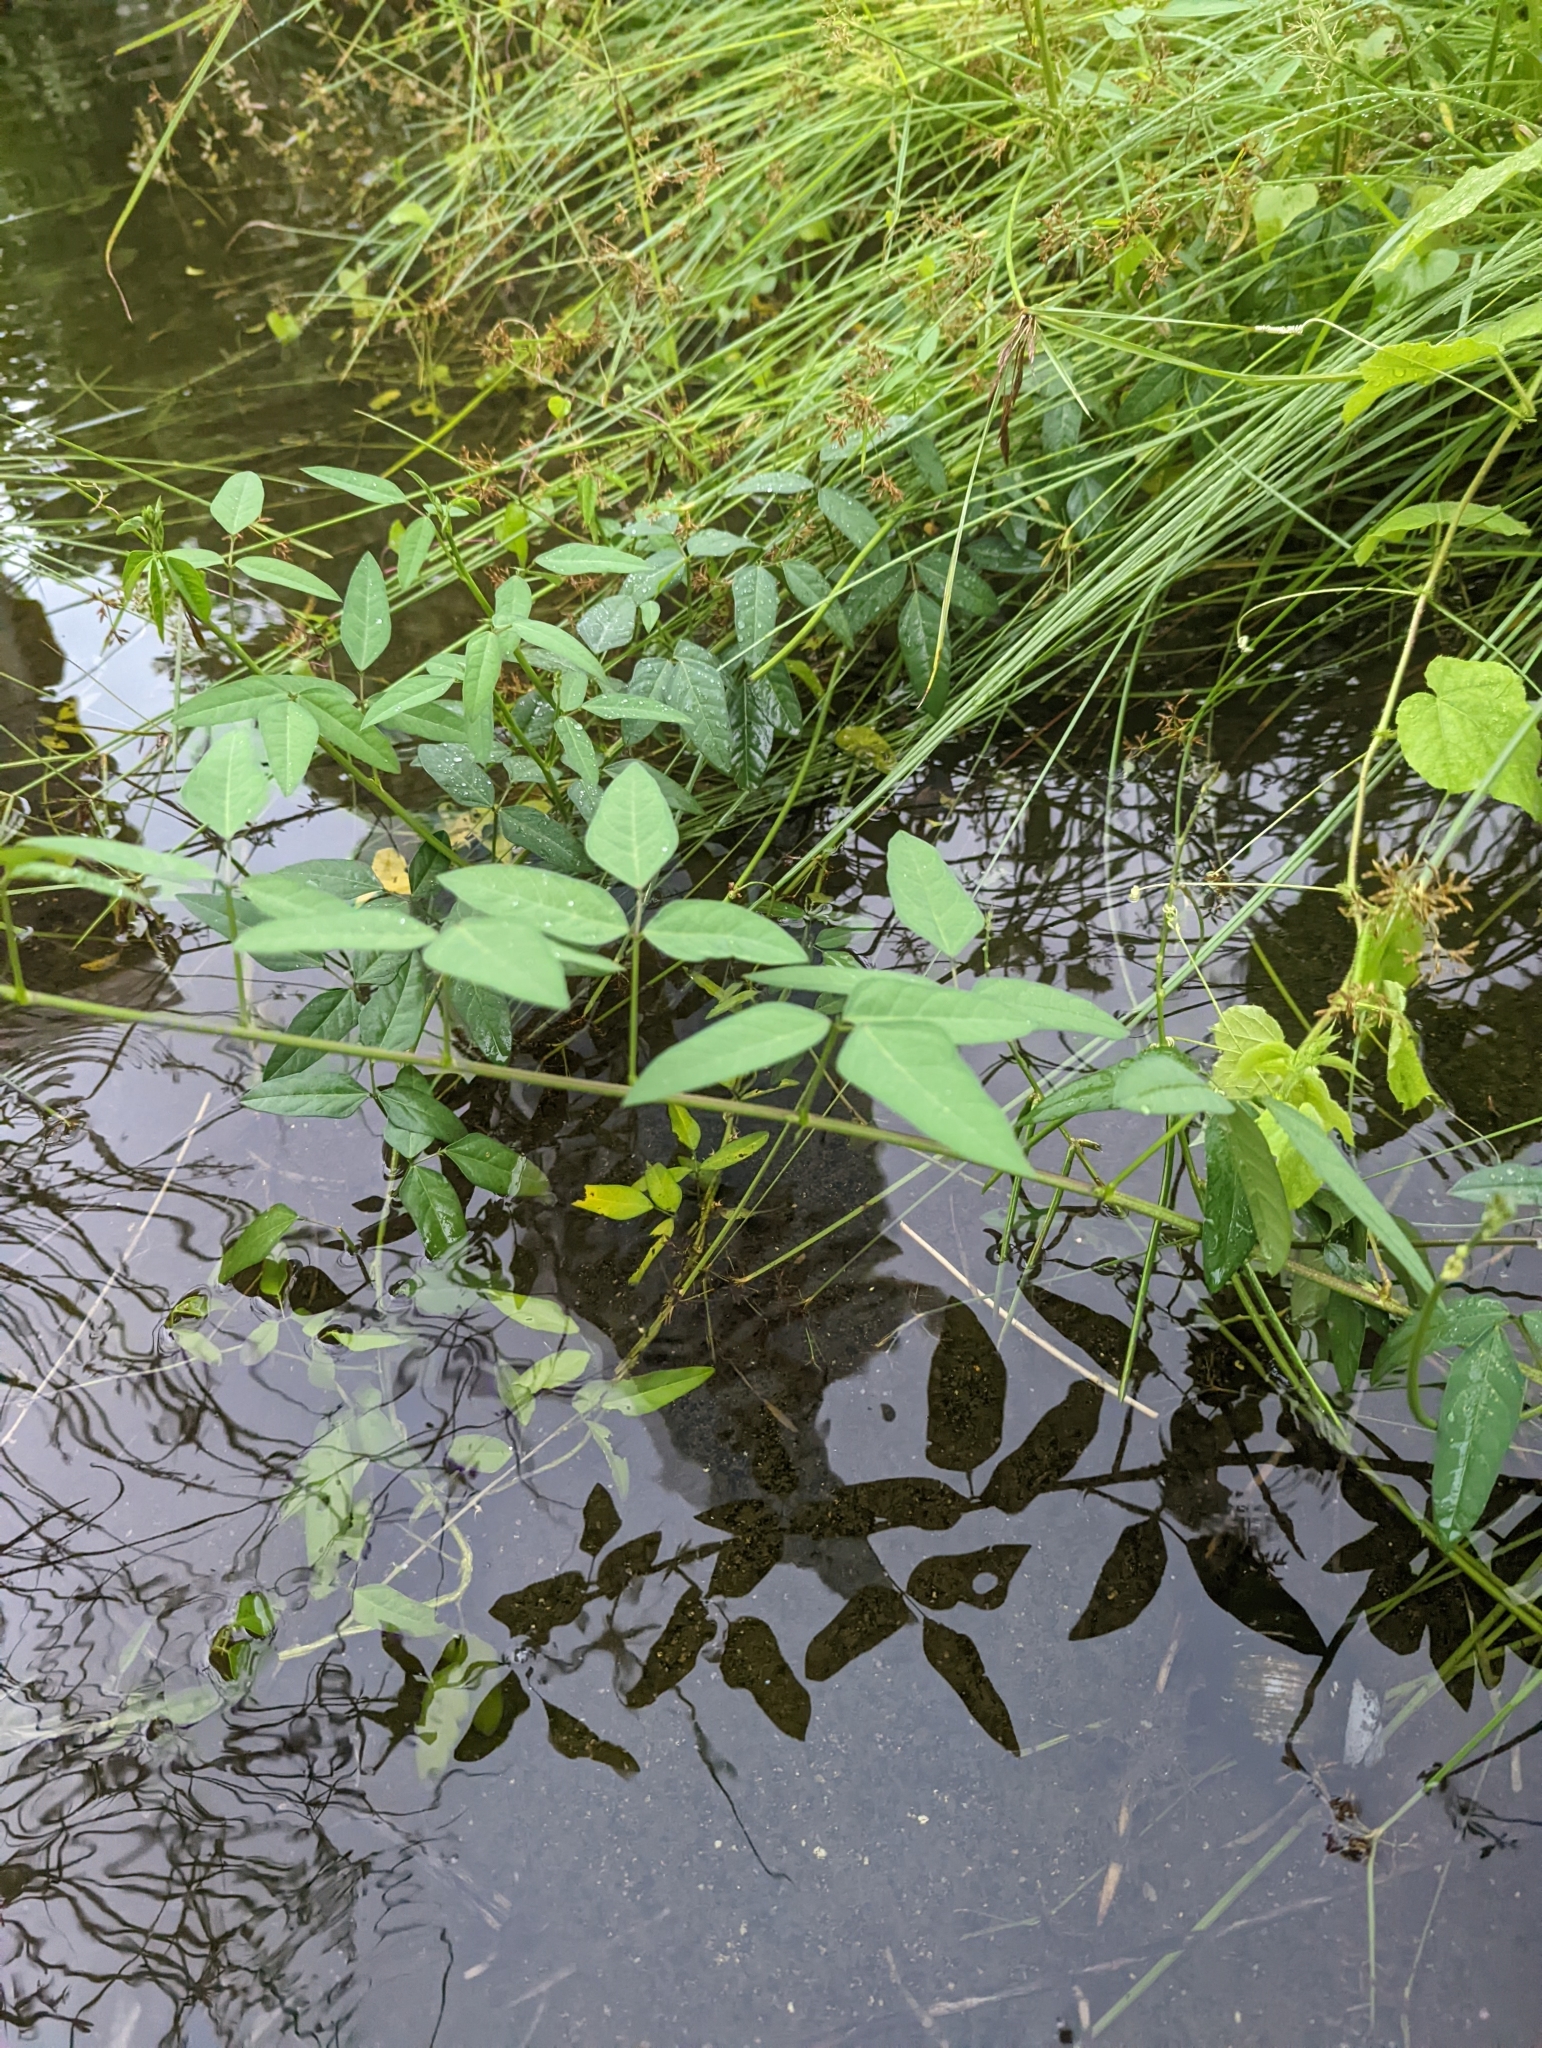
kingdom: Plantae
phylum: Tracheophyta
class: Magnoliopsida
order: Fabales
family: Fabaceae
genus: Macroptilium
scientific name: Macroptilium lathyroides
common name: Wild bushbean
